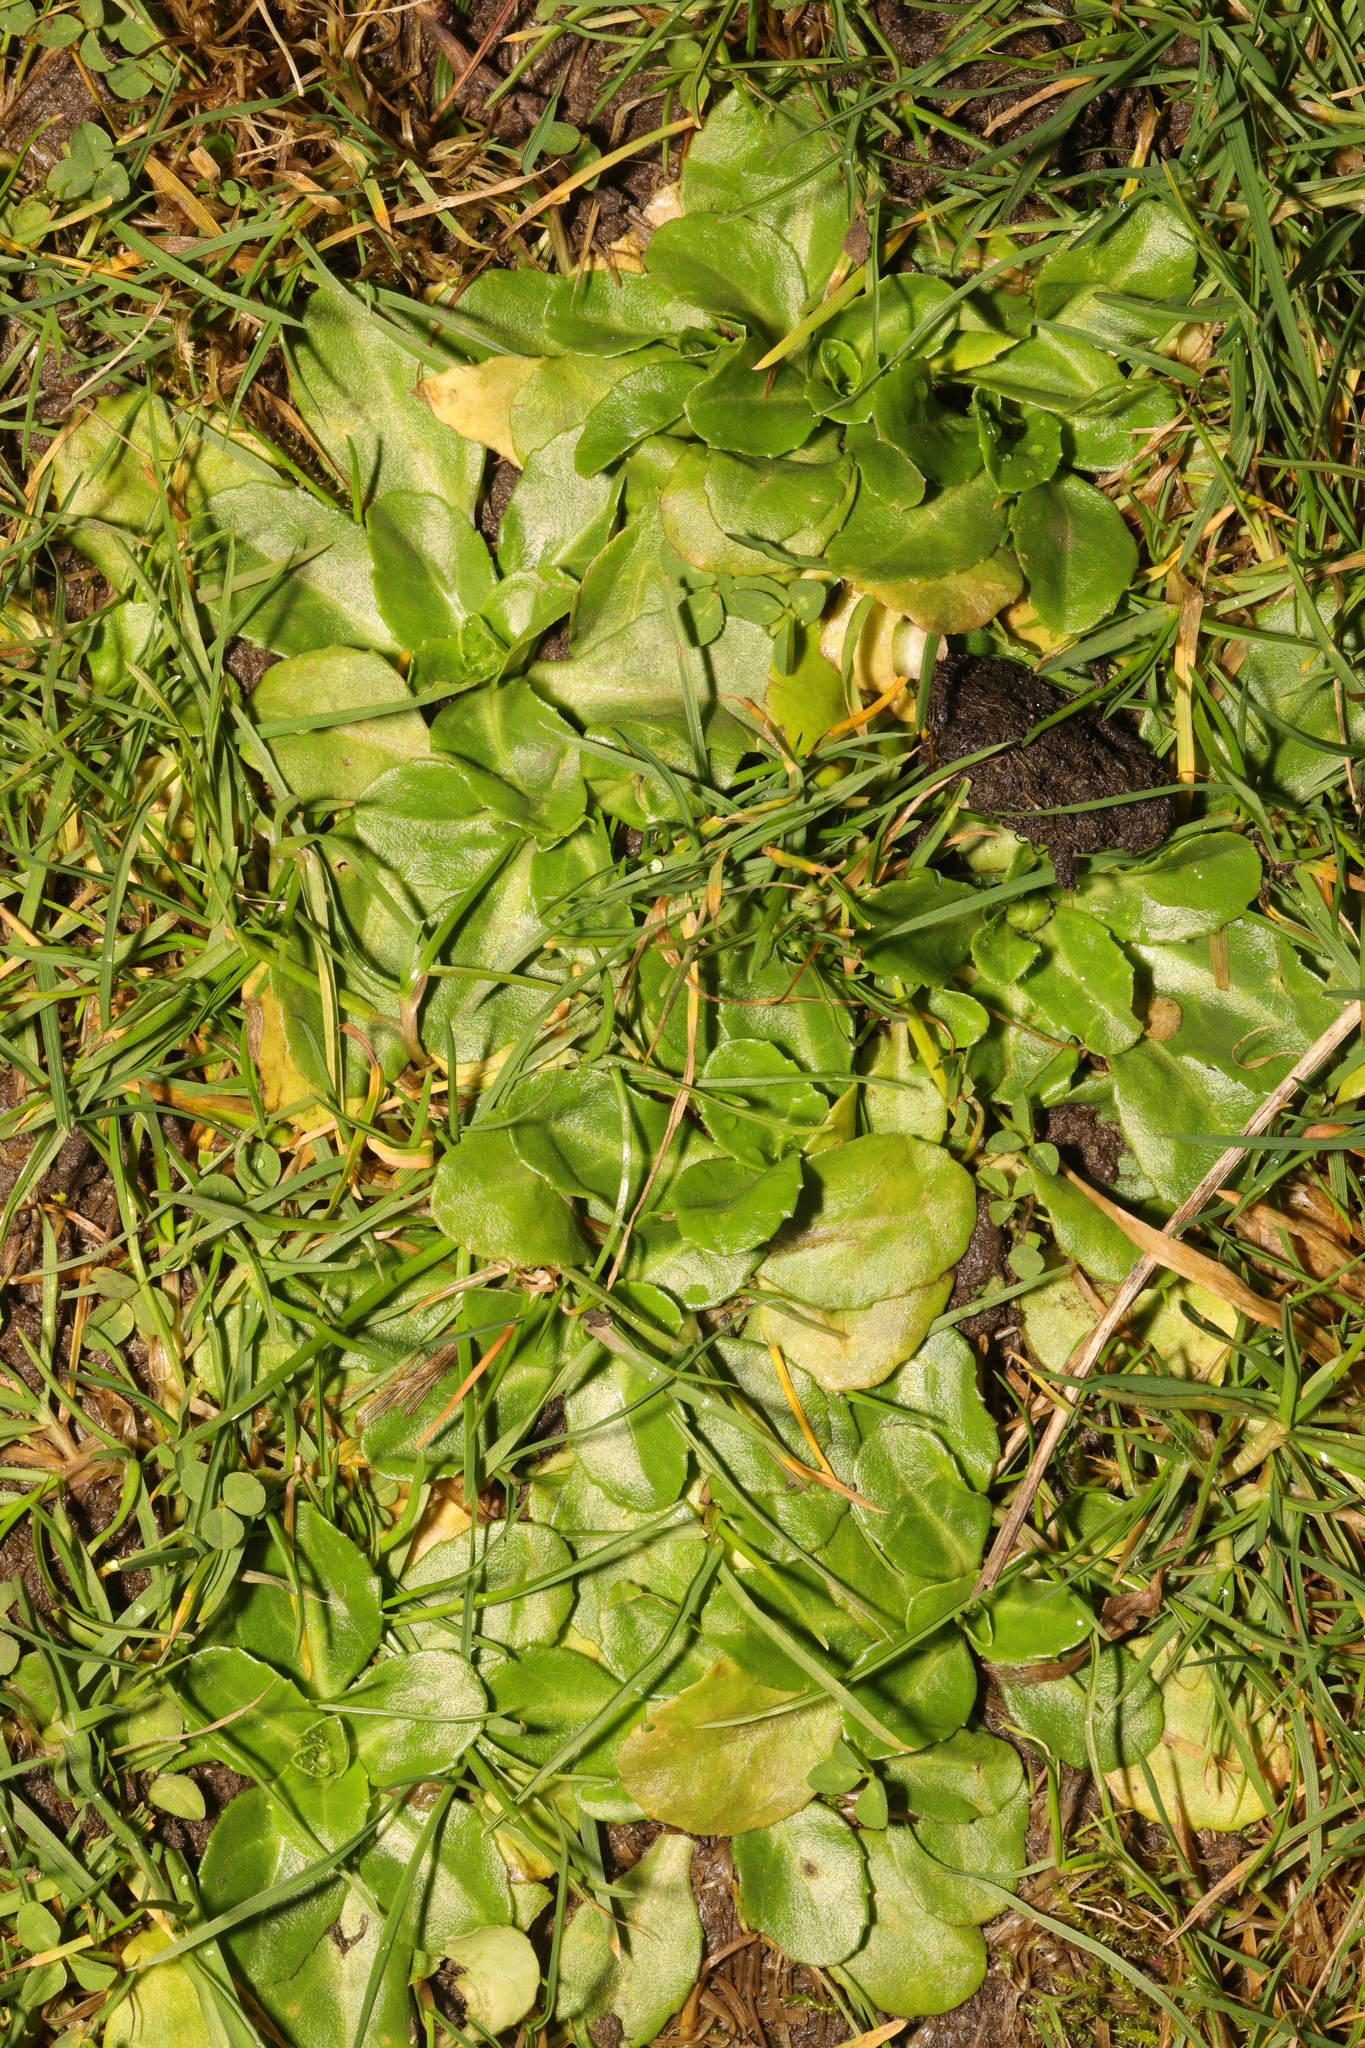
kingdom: Plantae
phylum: Tracheophyta
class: Magnoliopsida
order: Asterales
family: Asteraceae
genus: Bellis
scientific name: Bellis perennis
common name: Lawndaisy
